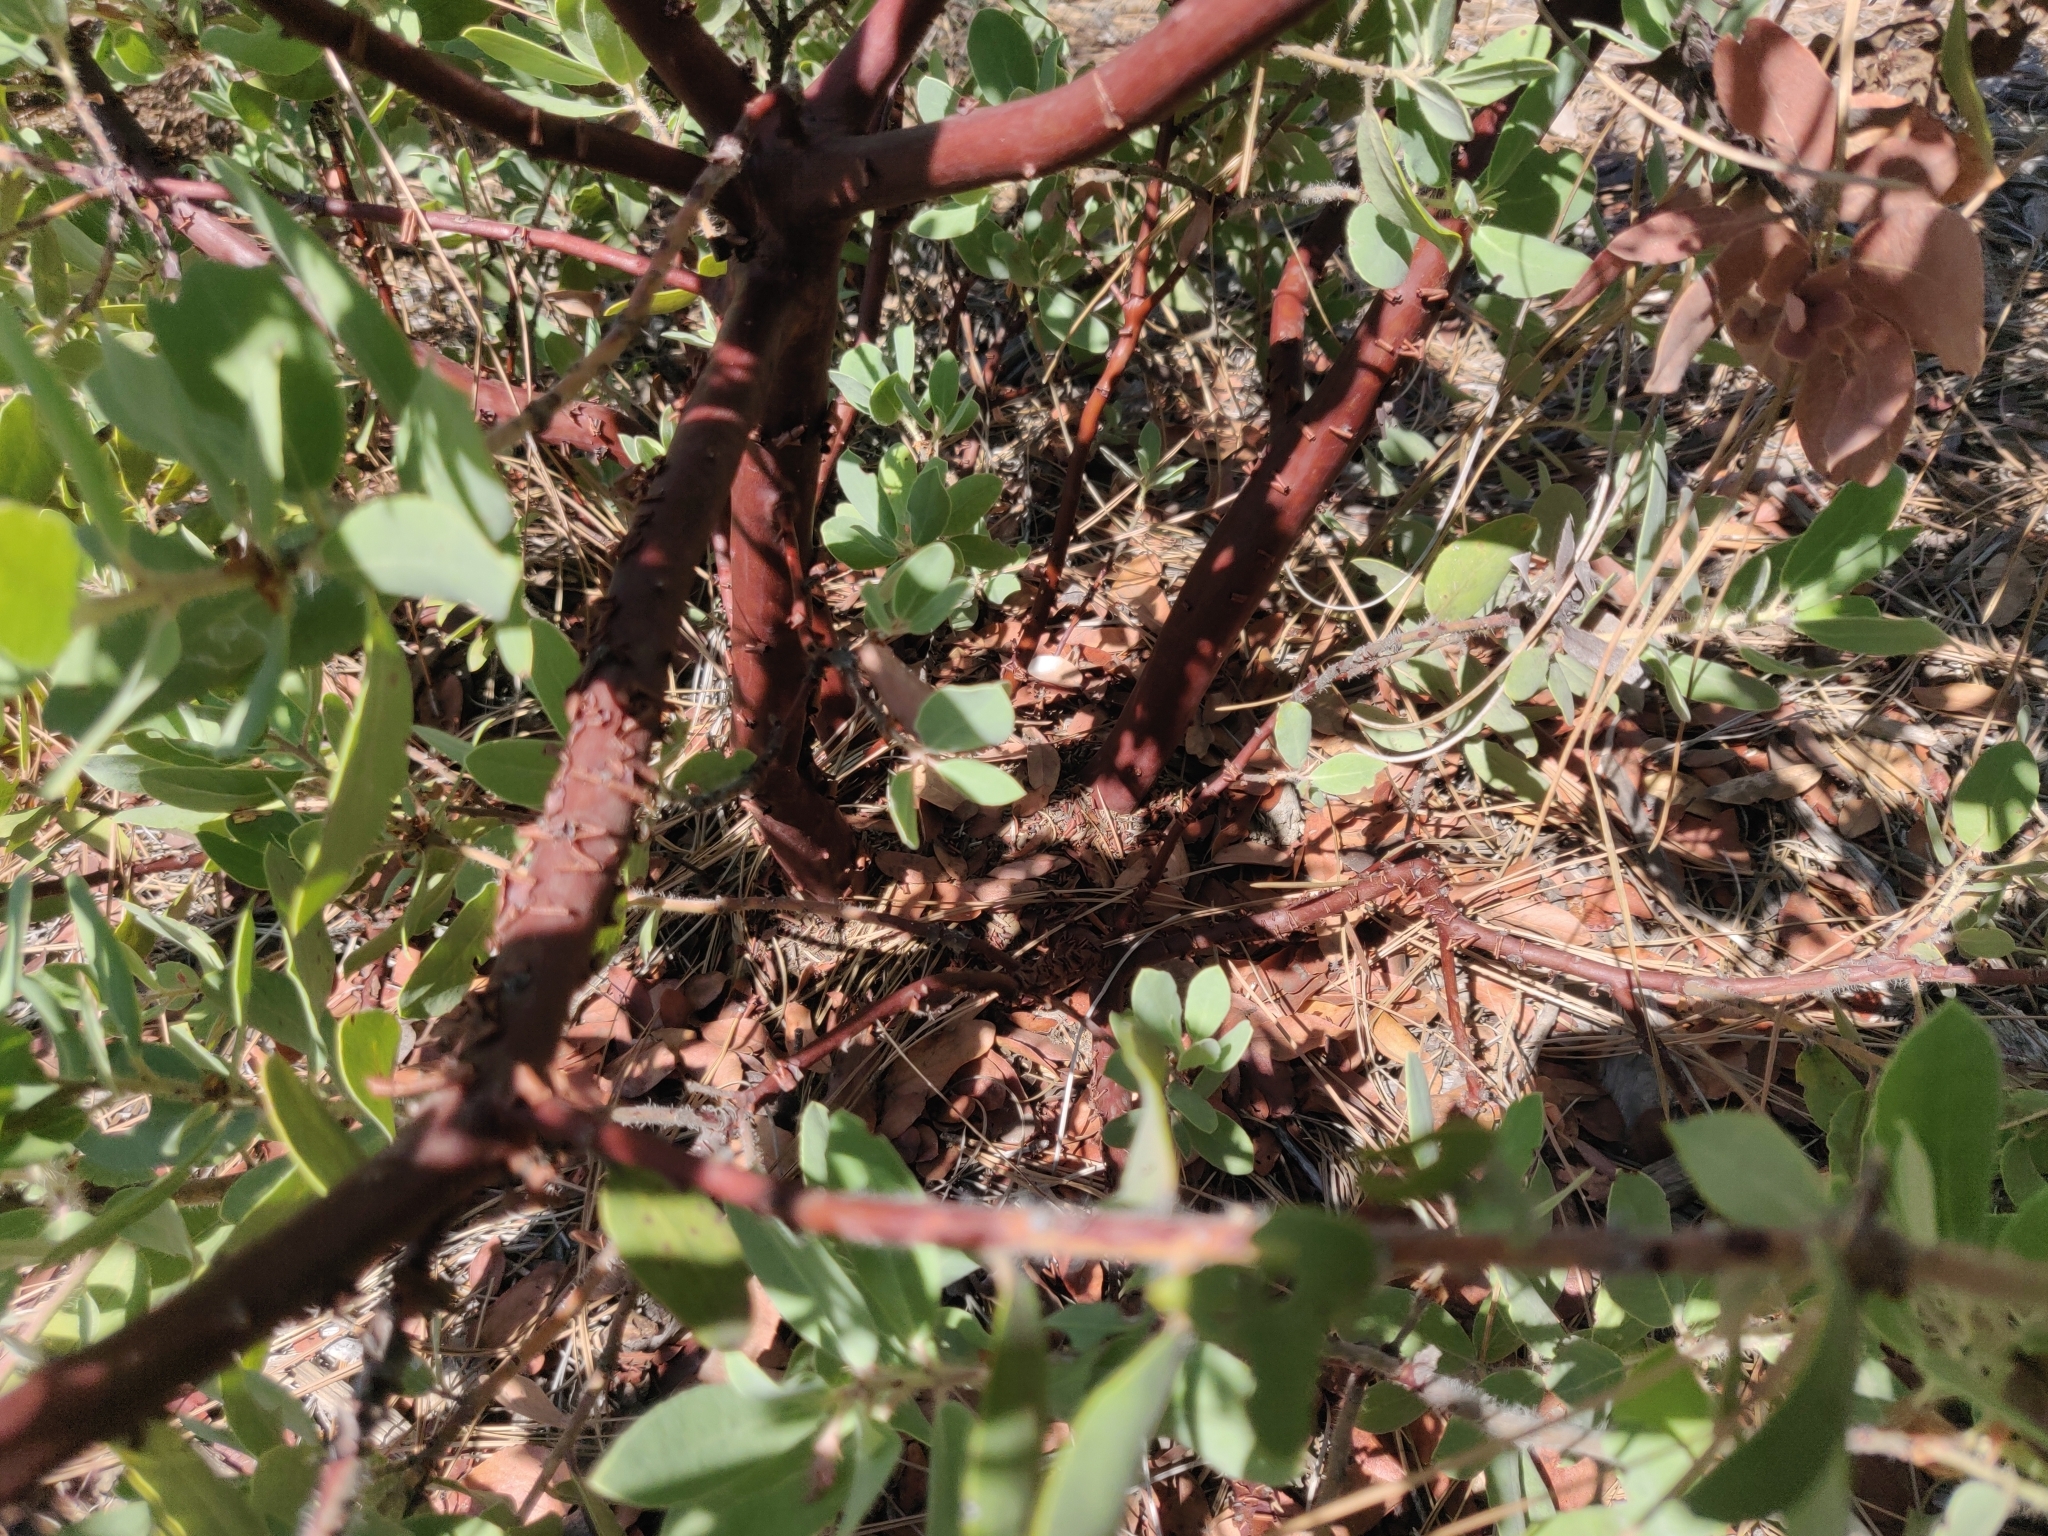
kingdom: Plantae
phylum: Tracheophyta
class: Magnoliopsida
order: Ericales
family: Ericaceae
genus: Arctostaphylos
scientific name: Arctostaphylos crustacea
